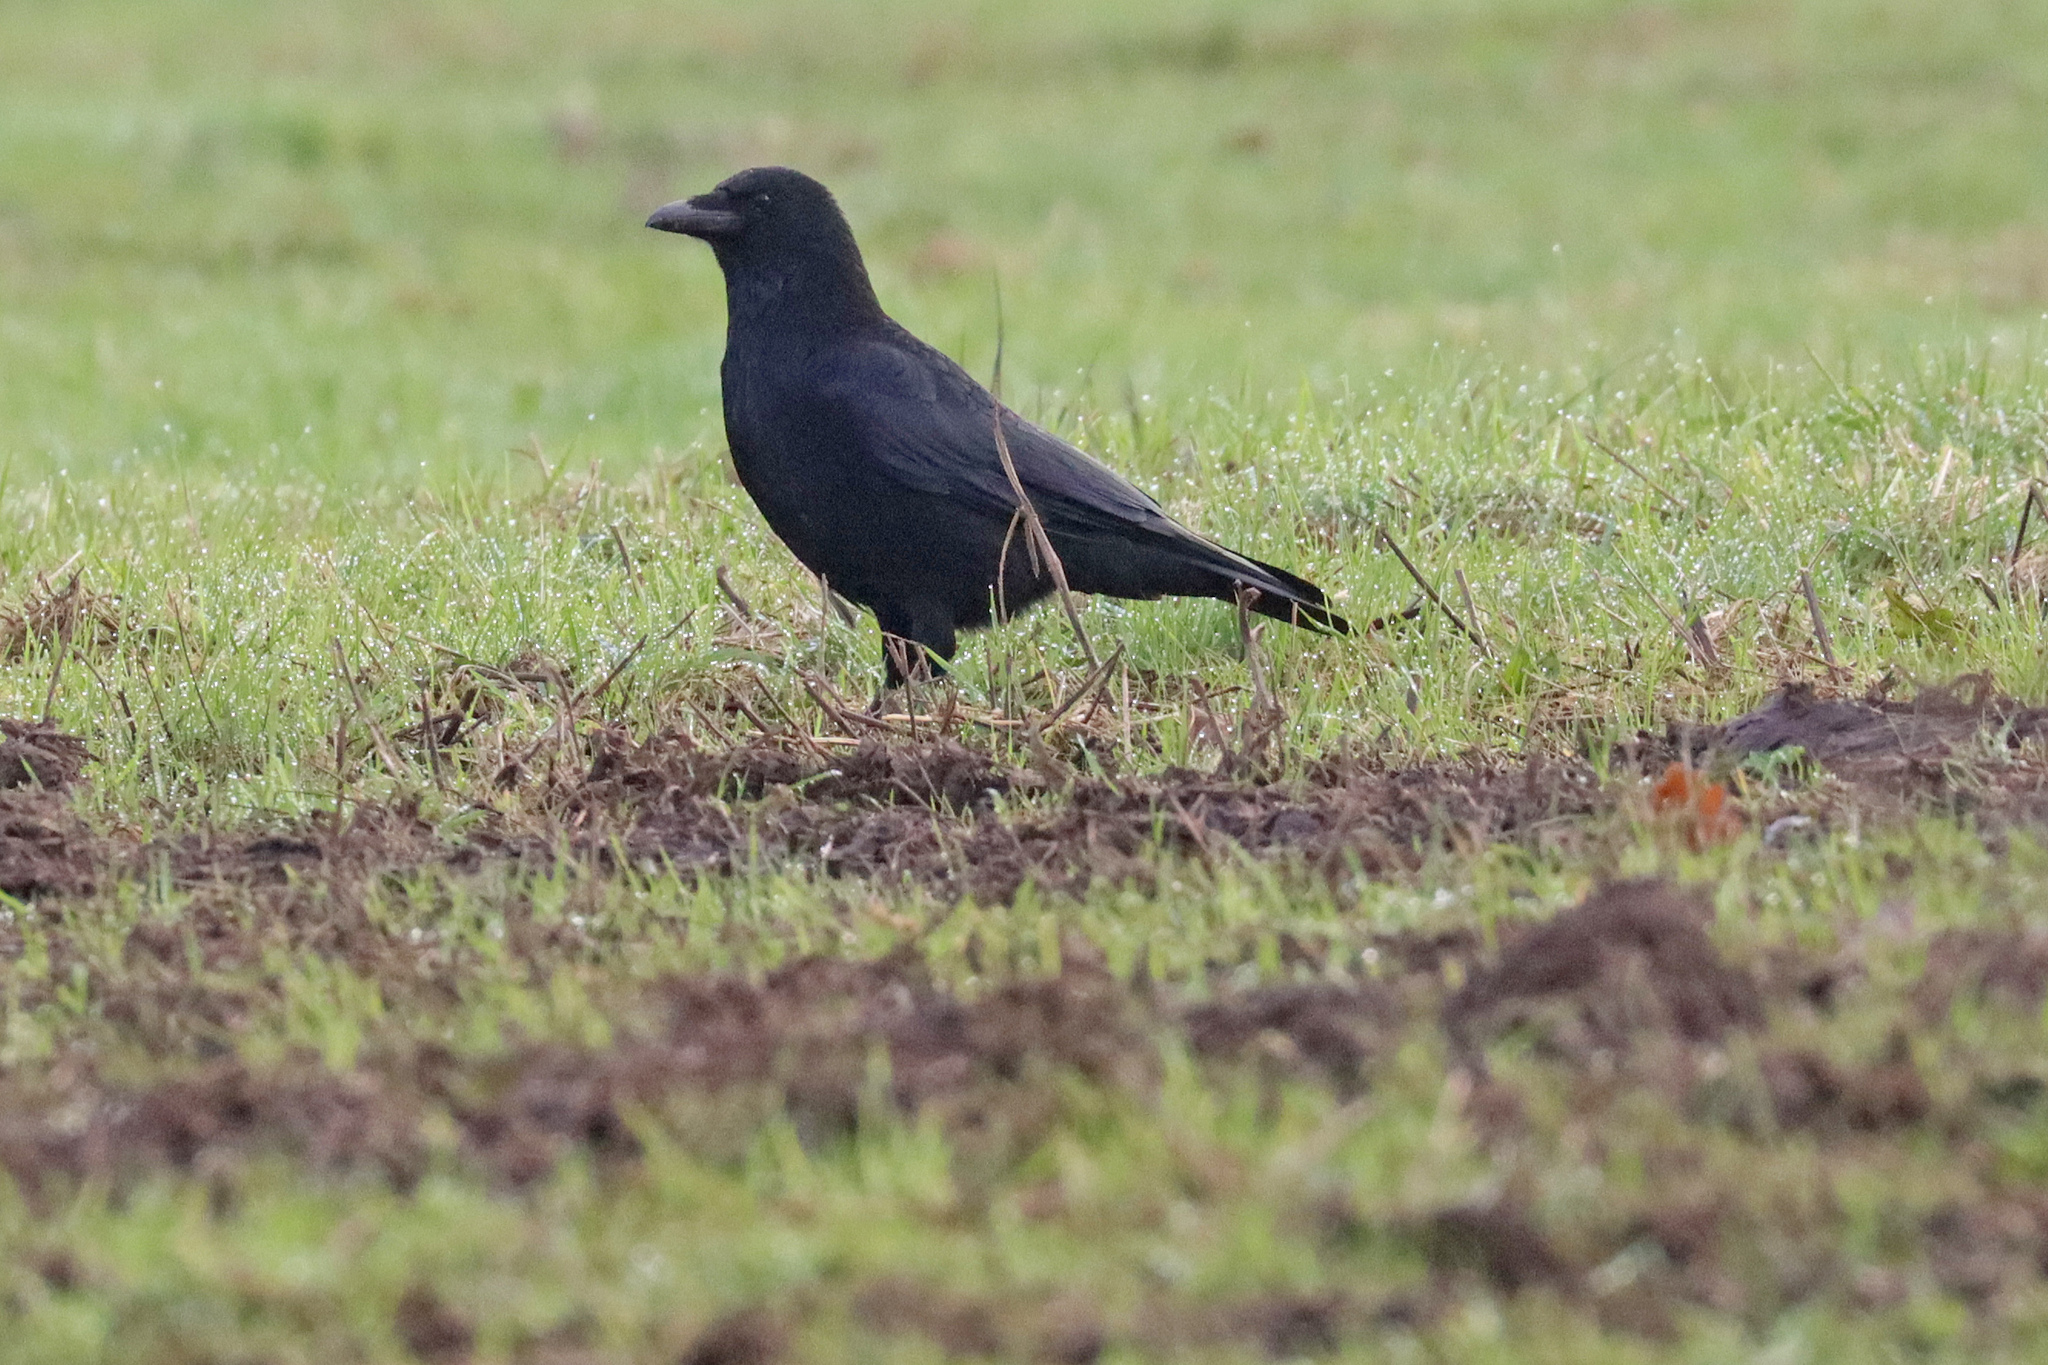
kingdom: Animalia
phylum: Chordata
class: Aves
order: Passeriformes
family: Corvidae
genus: Corvus
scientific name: Corvus corone
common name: Carrion crow
